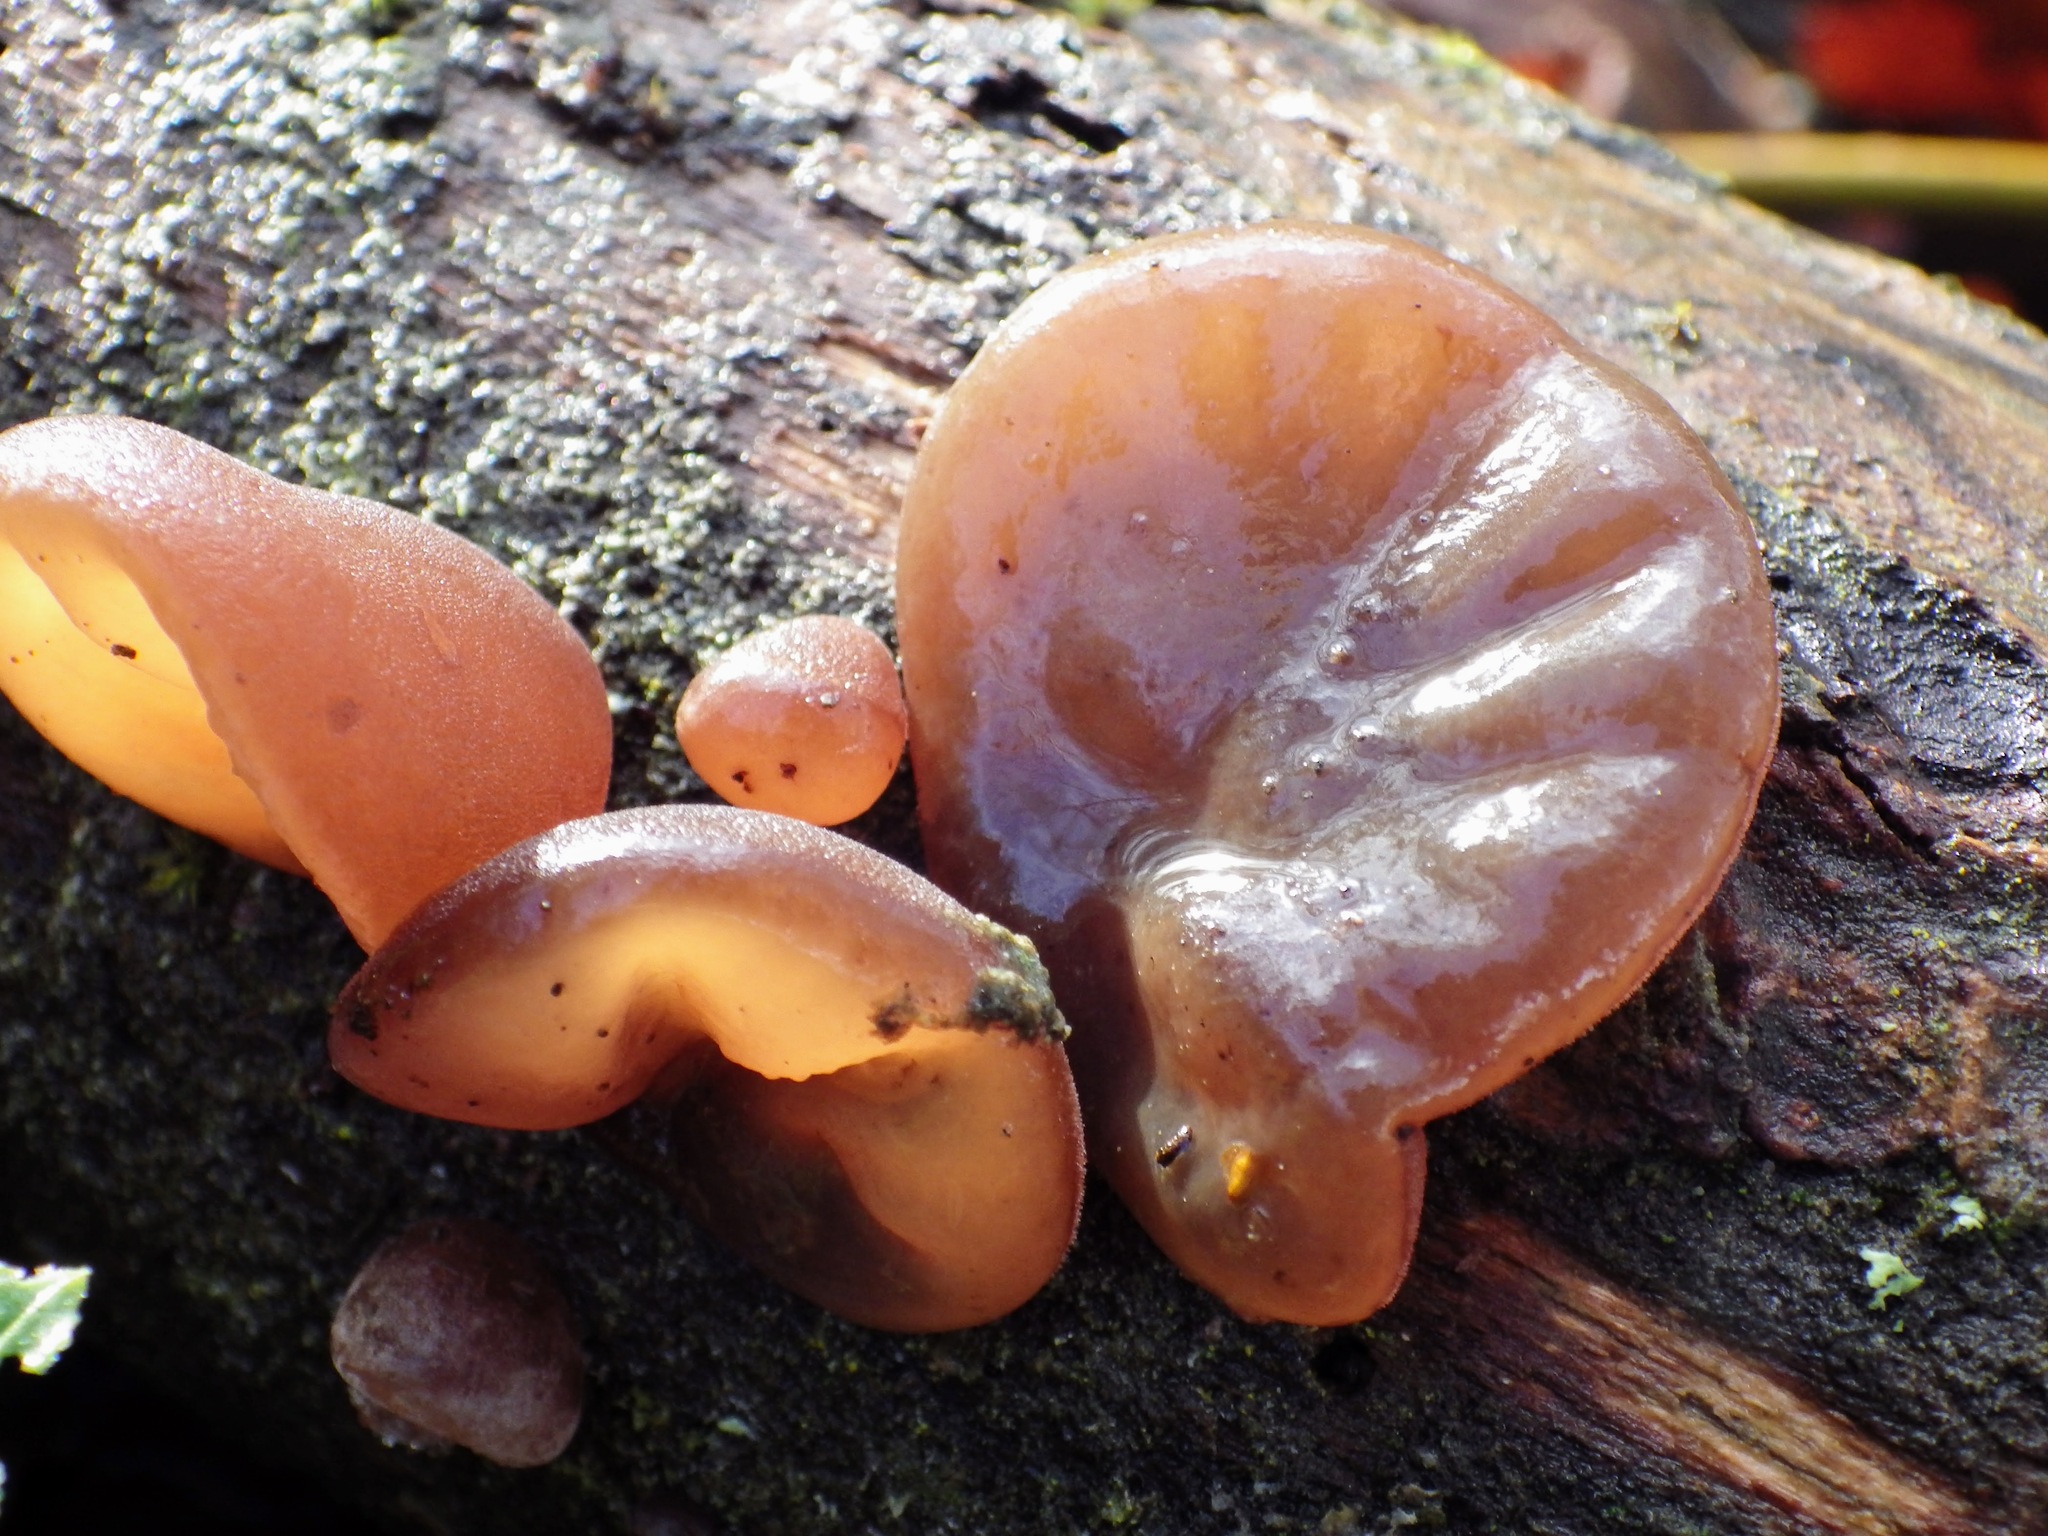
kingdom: Fungi
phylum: Basidiomycota
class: Agaricomycetes
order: Auriculariales
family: Auriculariaceae
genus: Auricularia
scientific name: Auricularia auricula-judae
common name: Jelly ear
